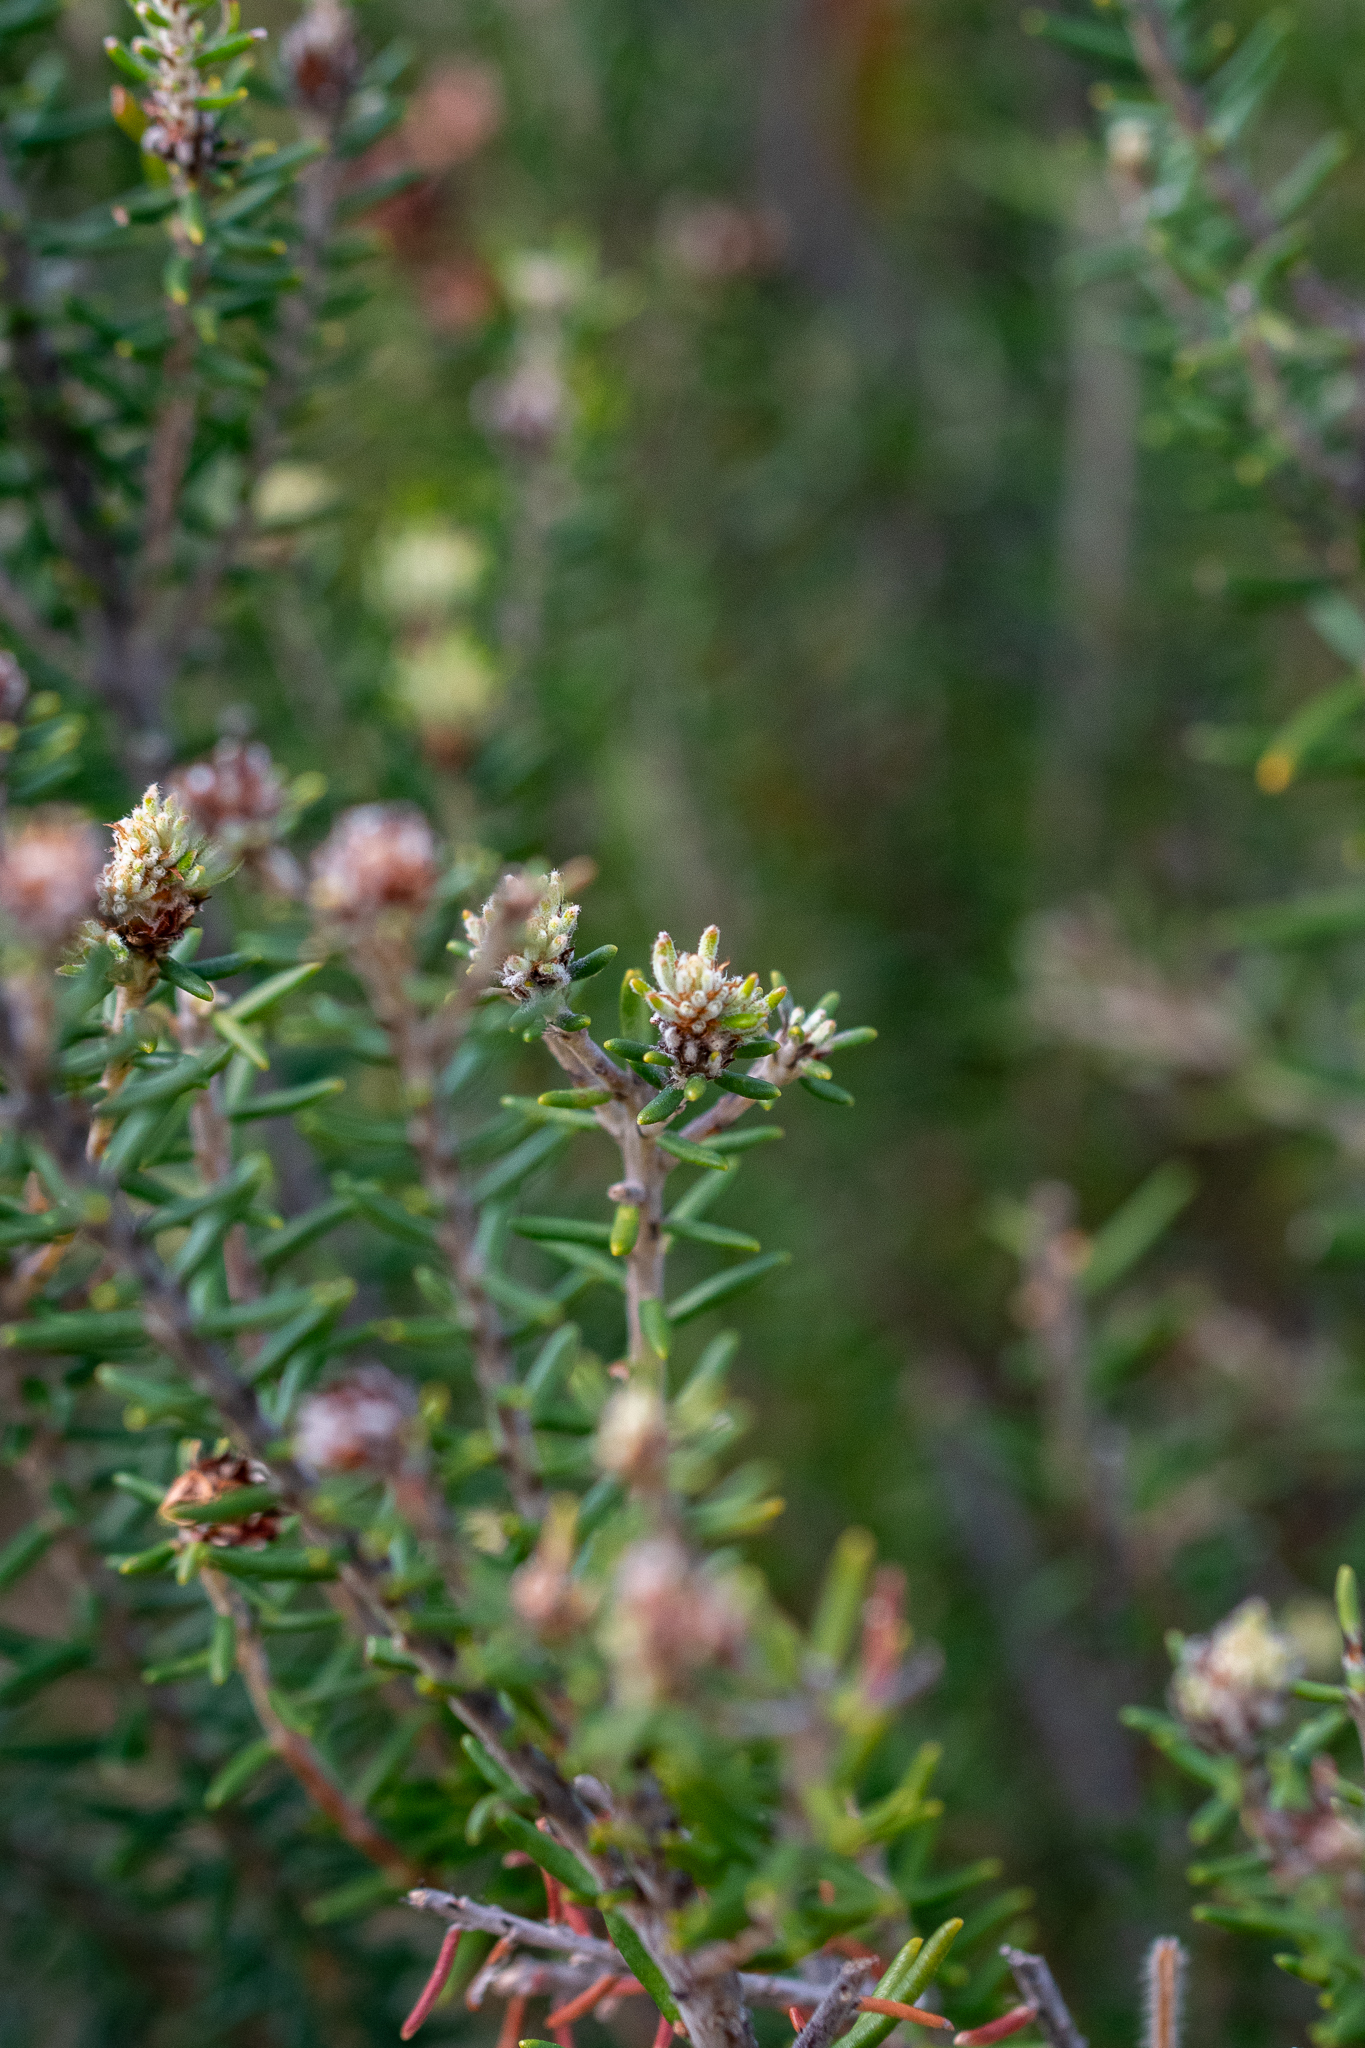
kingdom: Plantae
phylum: Tracheophyta
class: Magnoliopsida
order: Rosales
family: Rhamnaceae
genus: Trichocephalus
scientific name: Trichocephalus stipularis
